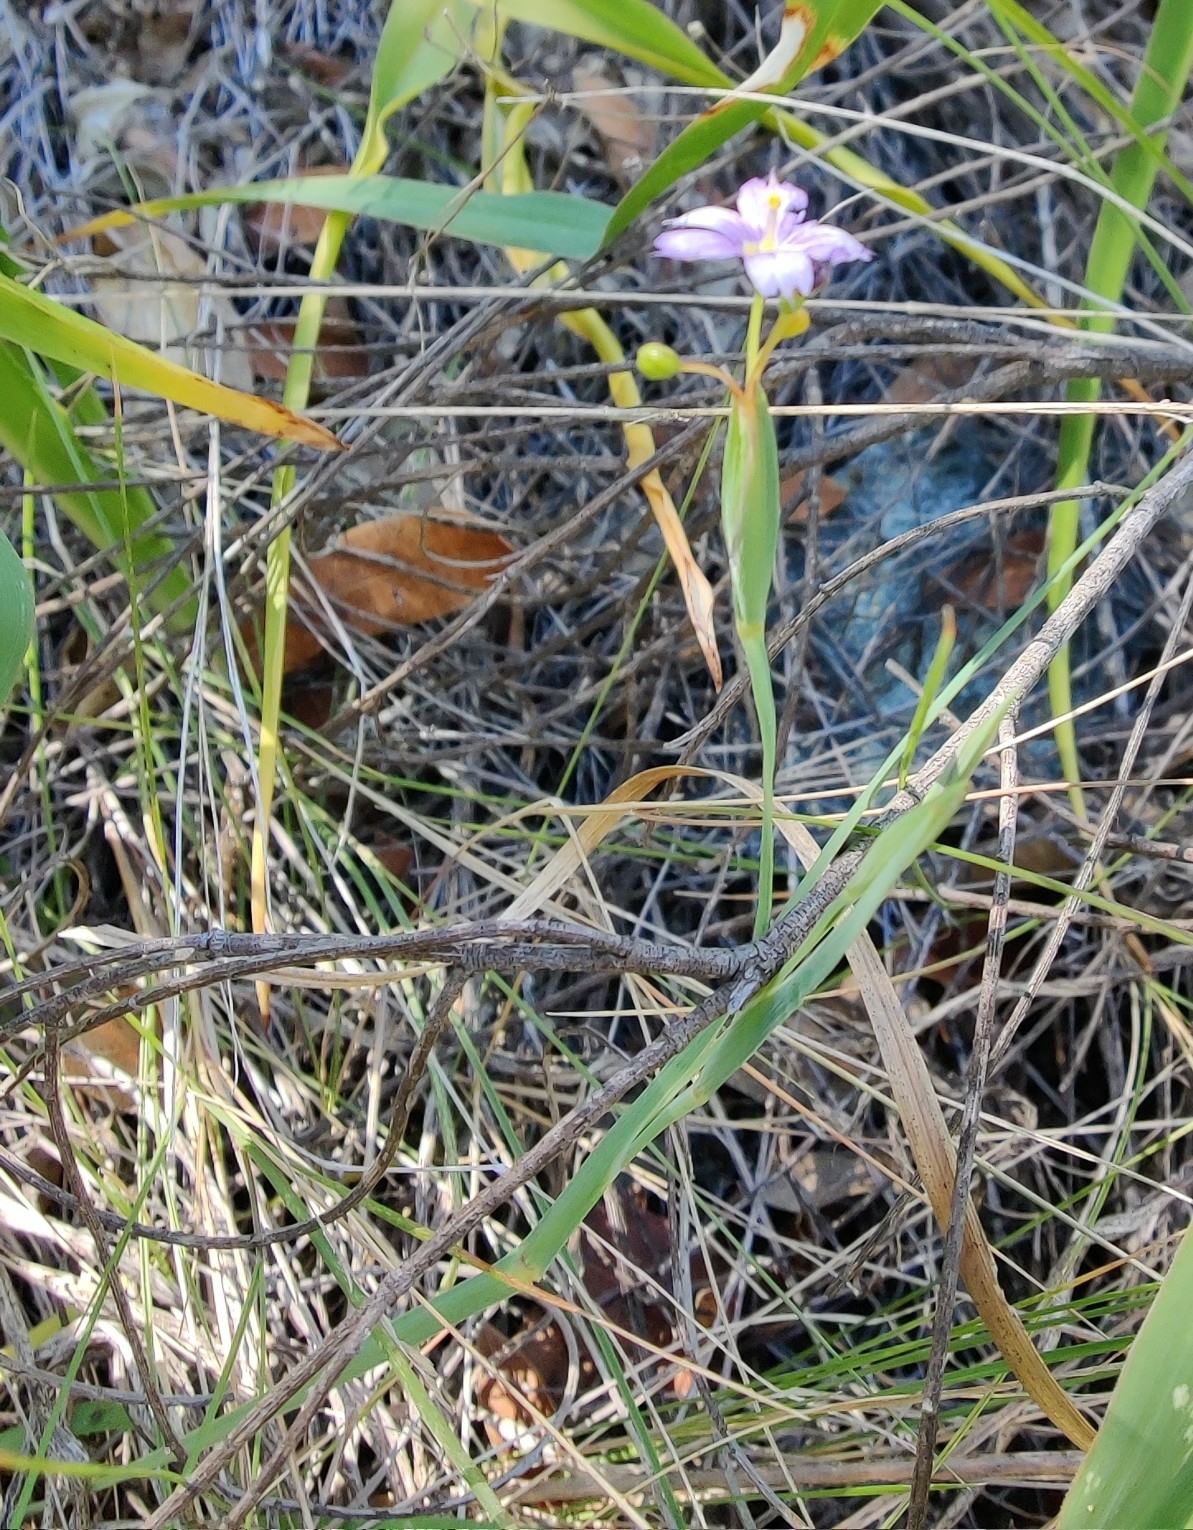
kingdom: Plantae
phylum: Tracheophyta
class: Liliopsida
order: Asparagales
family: Iridaceae
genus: Sisyrinchium
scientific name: Sisyrinchium bellum
